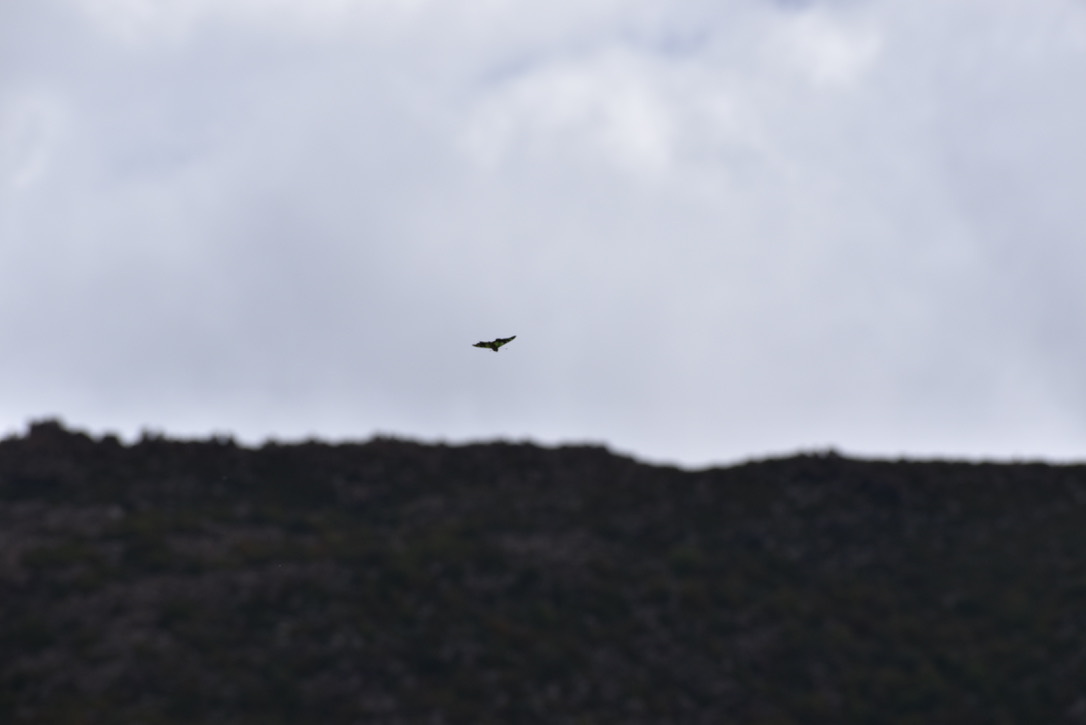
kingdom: Animalia
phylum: Arthropoda
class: Insecta
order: Lepidoptera
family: Papilionidae
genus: Graphium
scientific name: Graphium macleayanus
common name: Macleay's swallowtail
